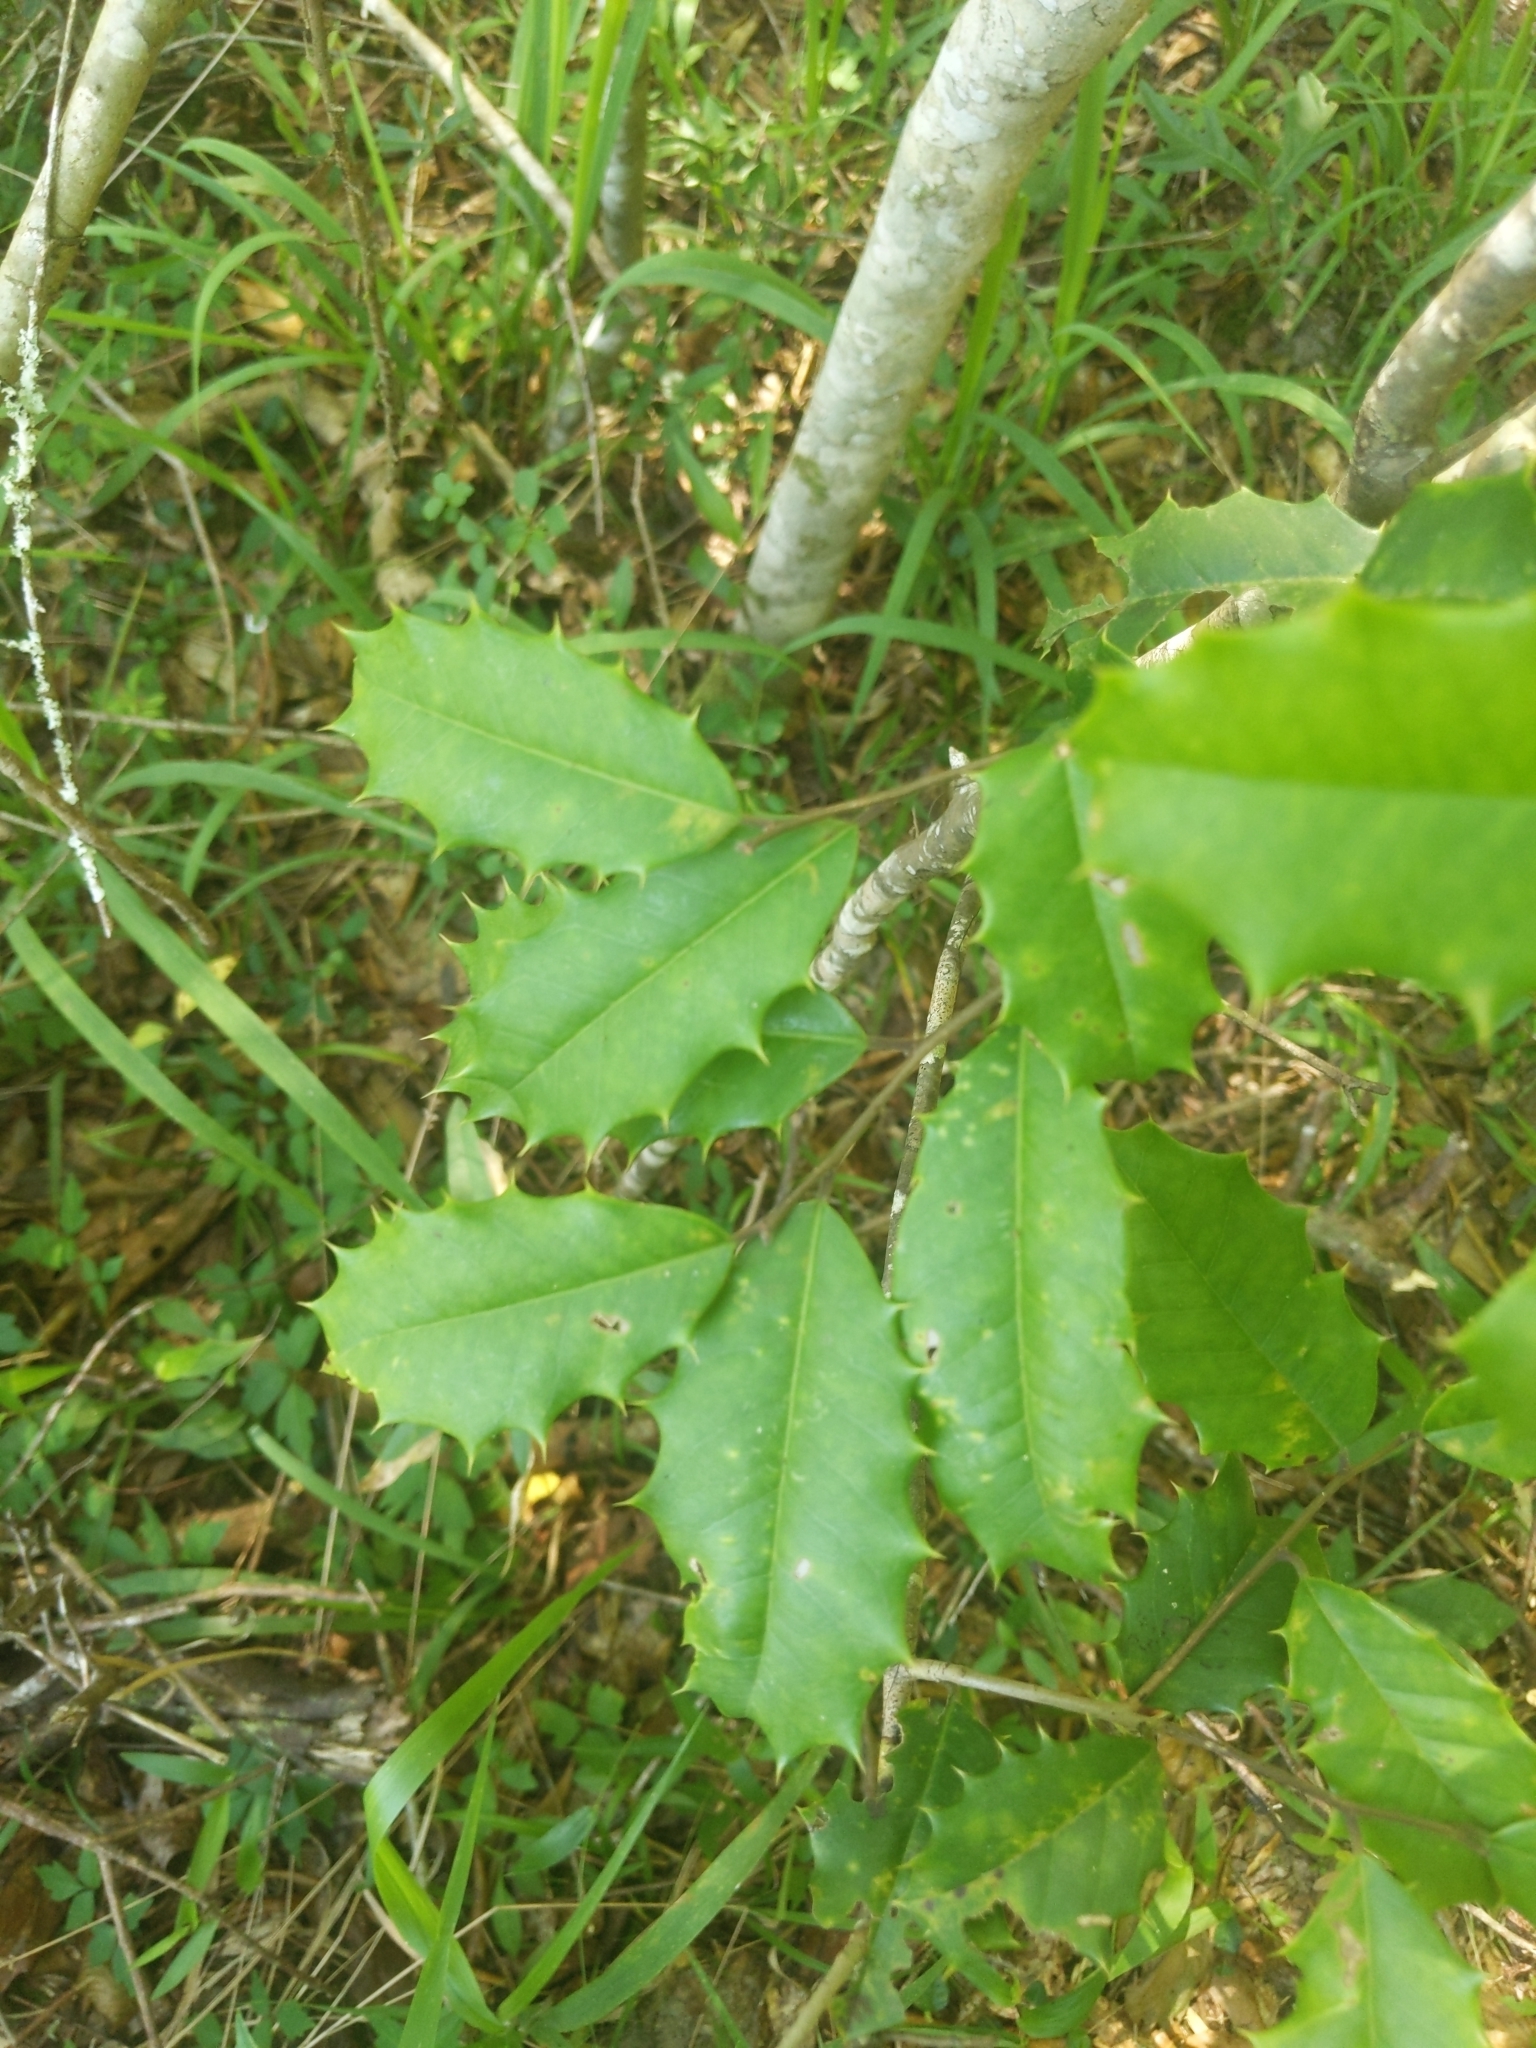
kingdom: Plantae
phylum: Tracheophyta
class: Magnoliopsida
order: Aquifoliales
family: Aquifoliaceae
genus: Ilex
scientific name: Ilex opaca
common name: American holly
